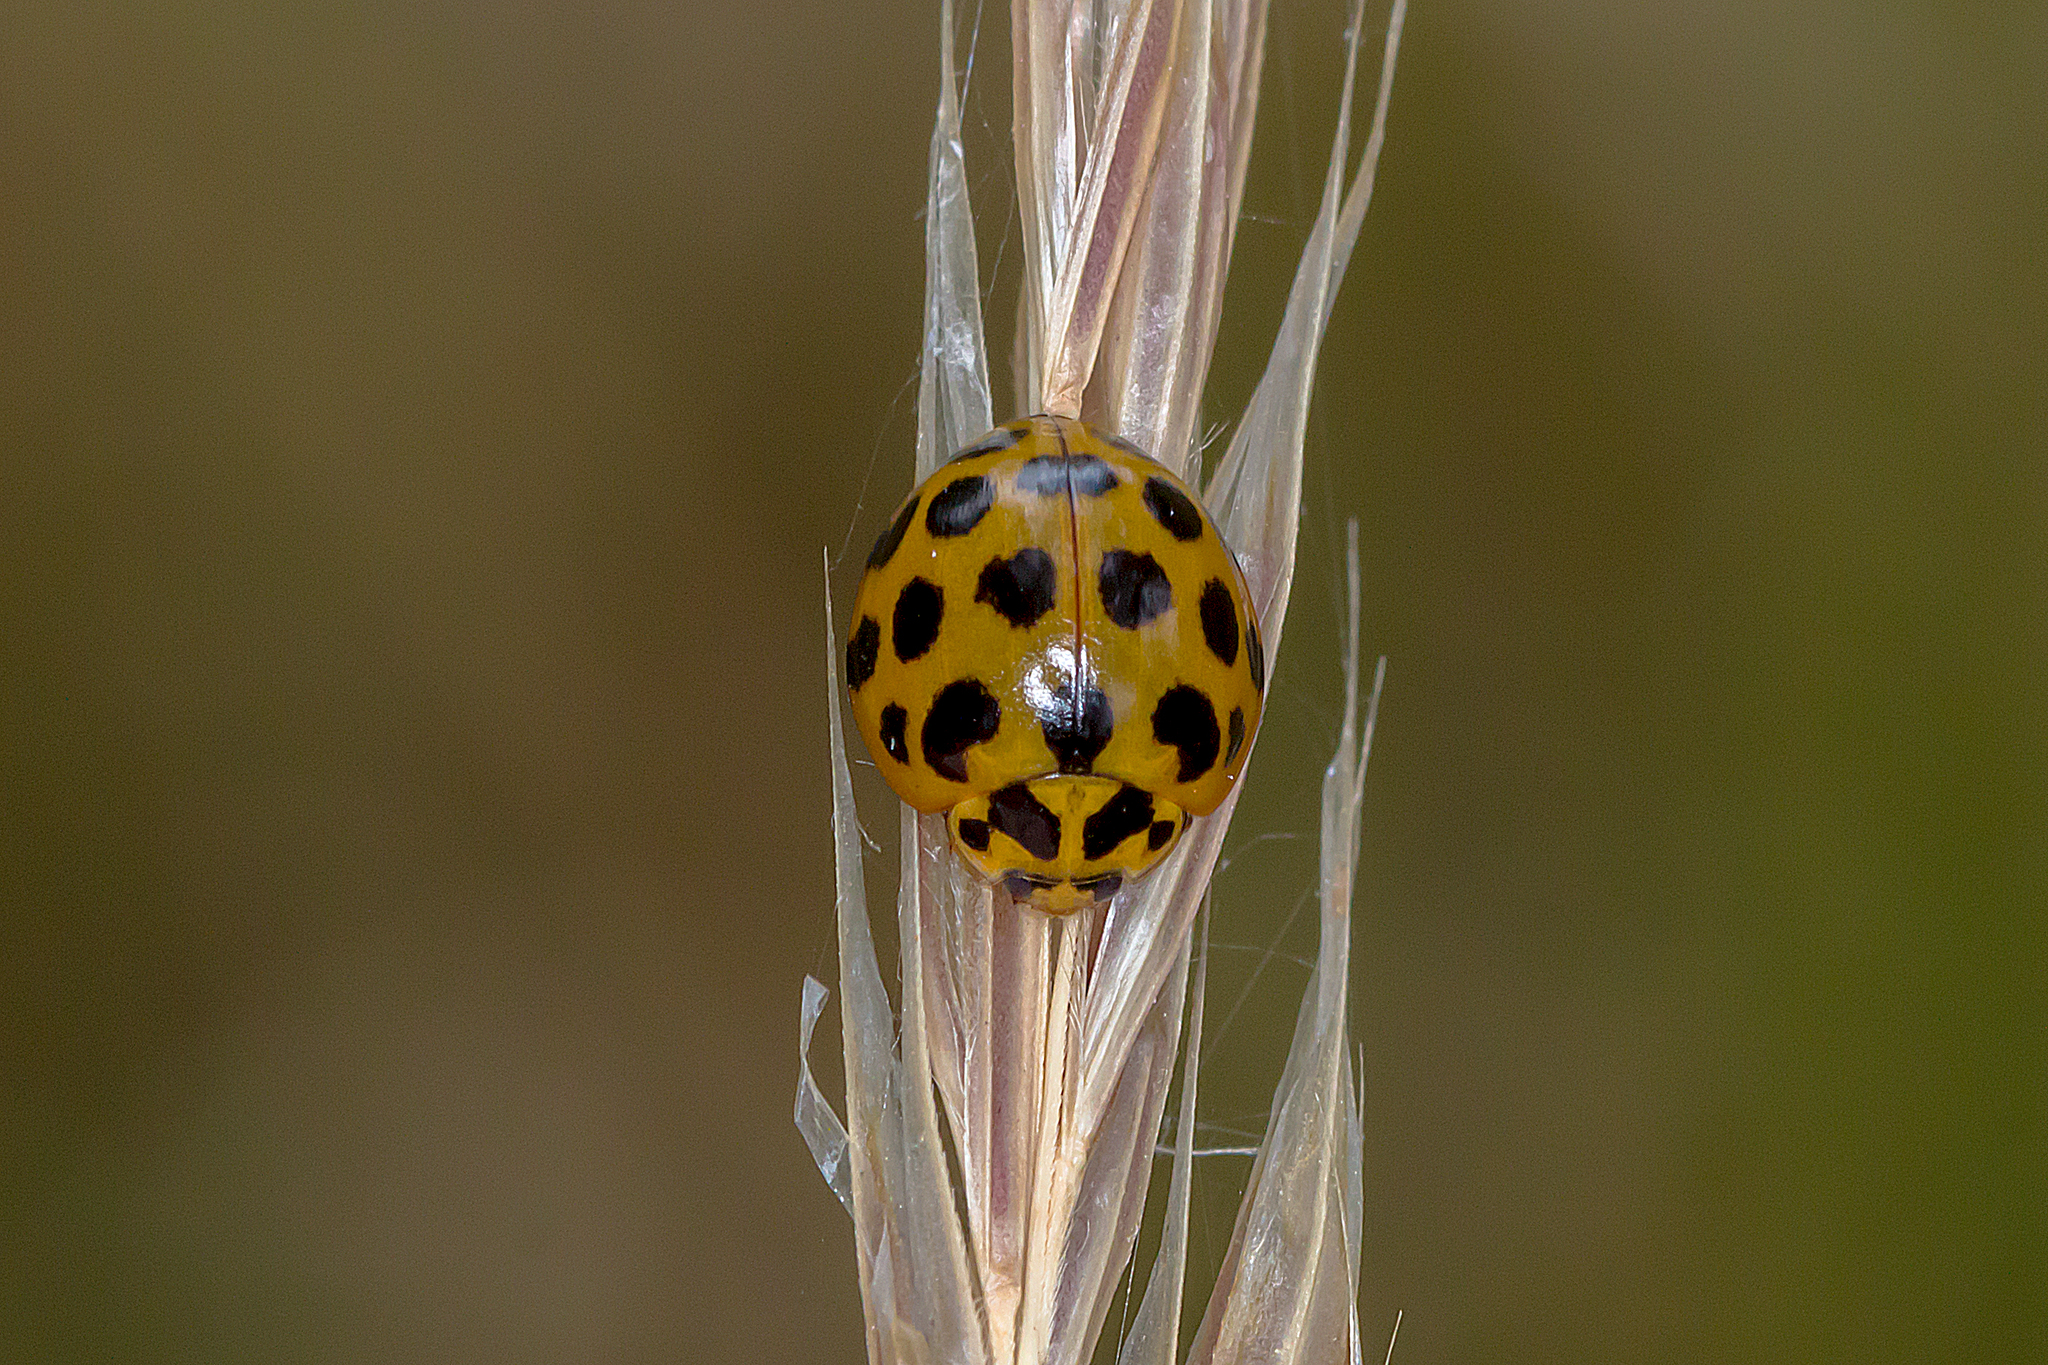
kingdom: Animalia
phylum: Arthropoda
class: Insecta
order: Coleoptera
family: Coccinellidae
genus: Harmonia
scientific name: Harmonia conformis
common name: Common spotted ladybird beetle
